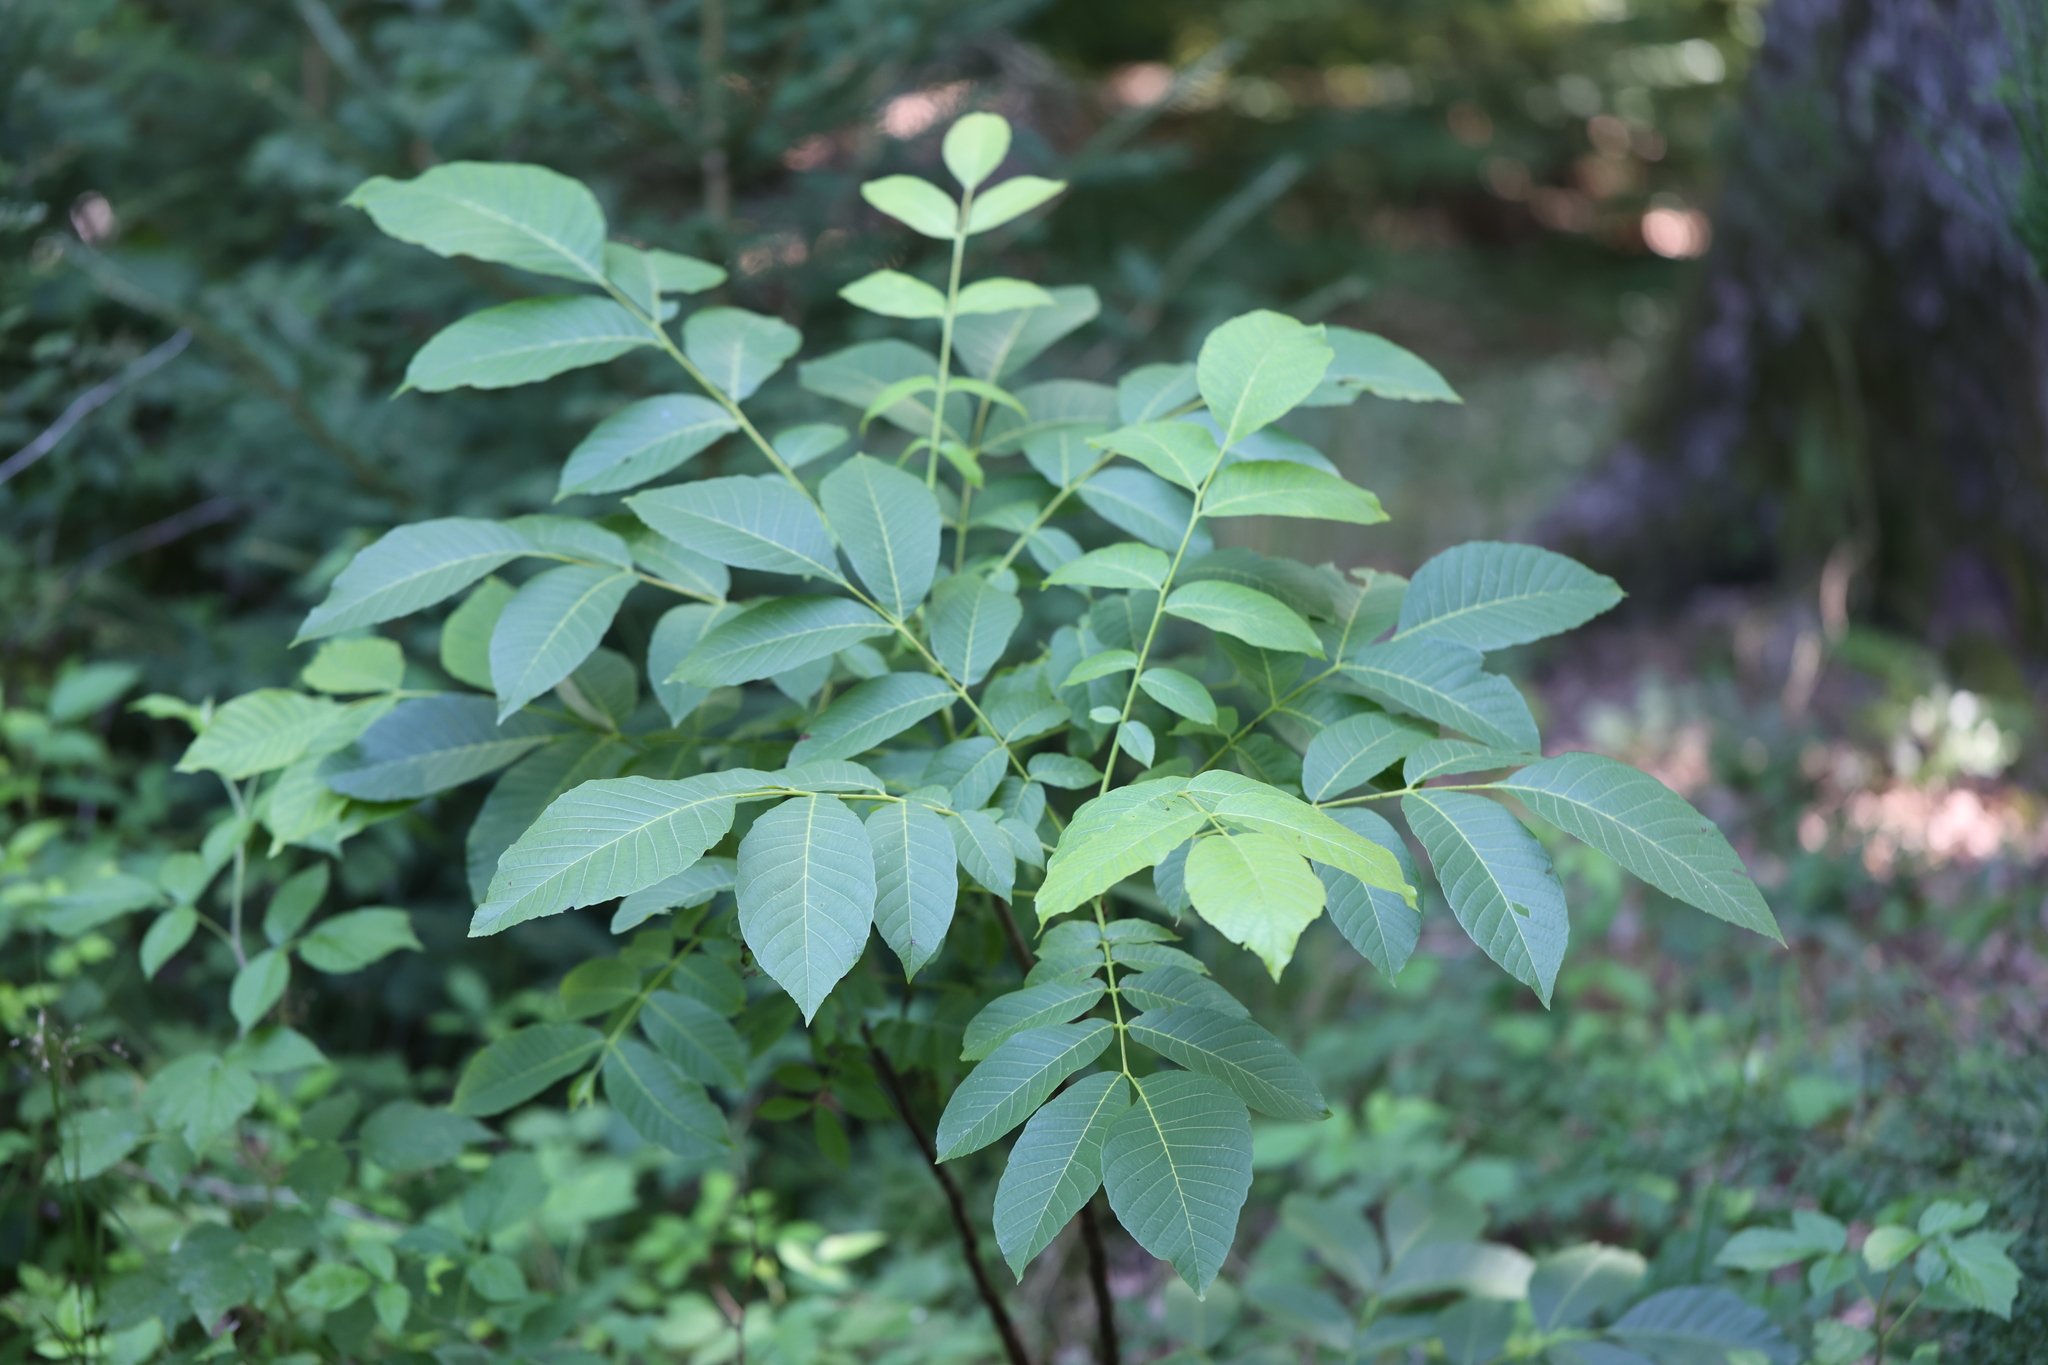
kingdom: Plantae
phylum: Tracheophyta
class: Magnoliopsida
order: Fagales
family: Juglandaceae
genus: Juglans
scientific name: Juglans regia
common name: Walnut
